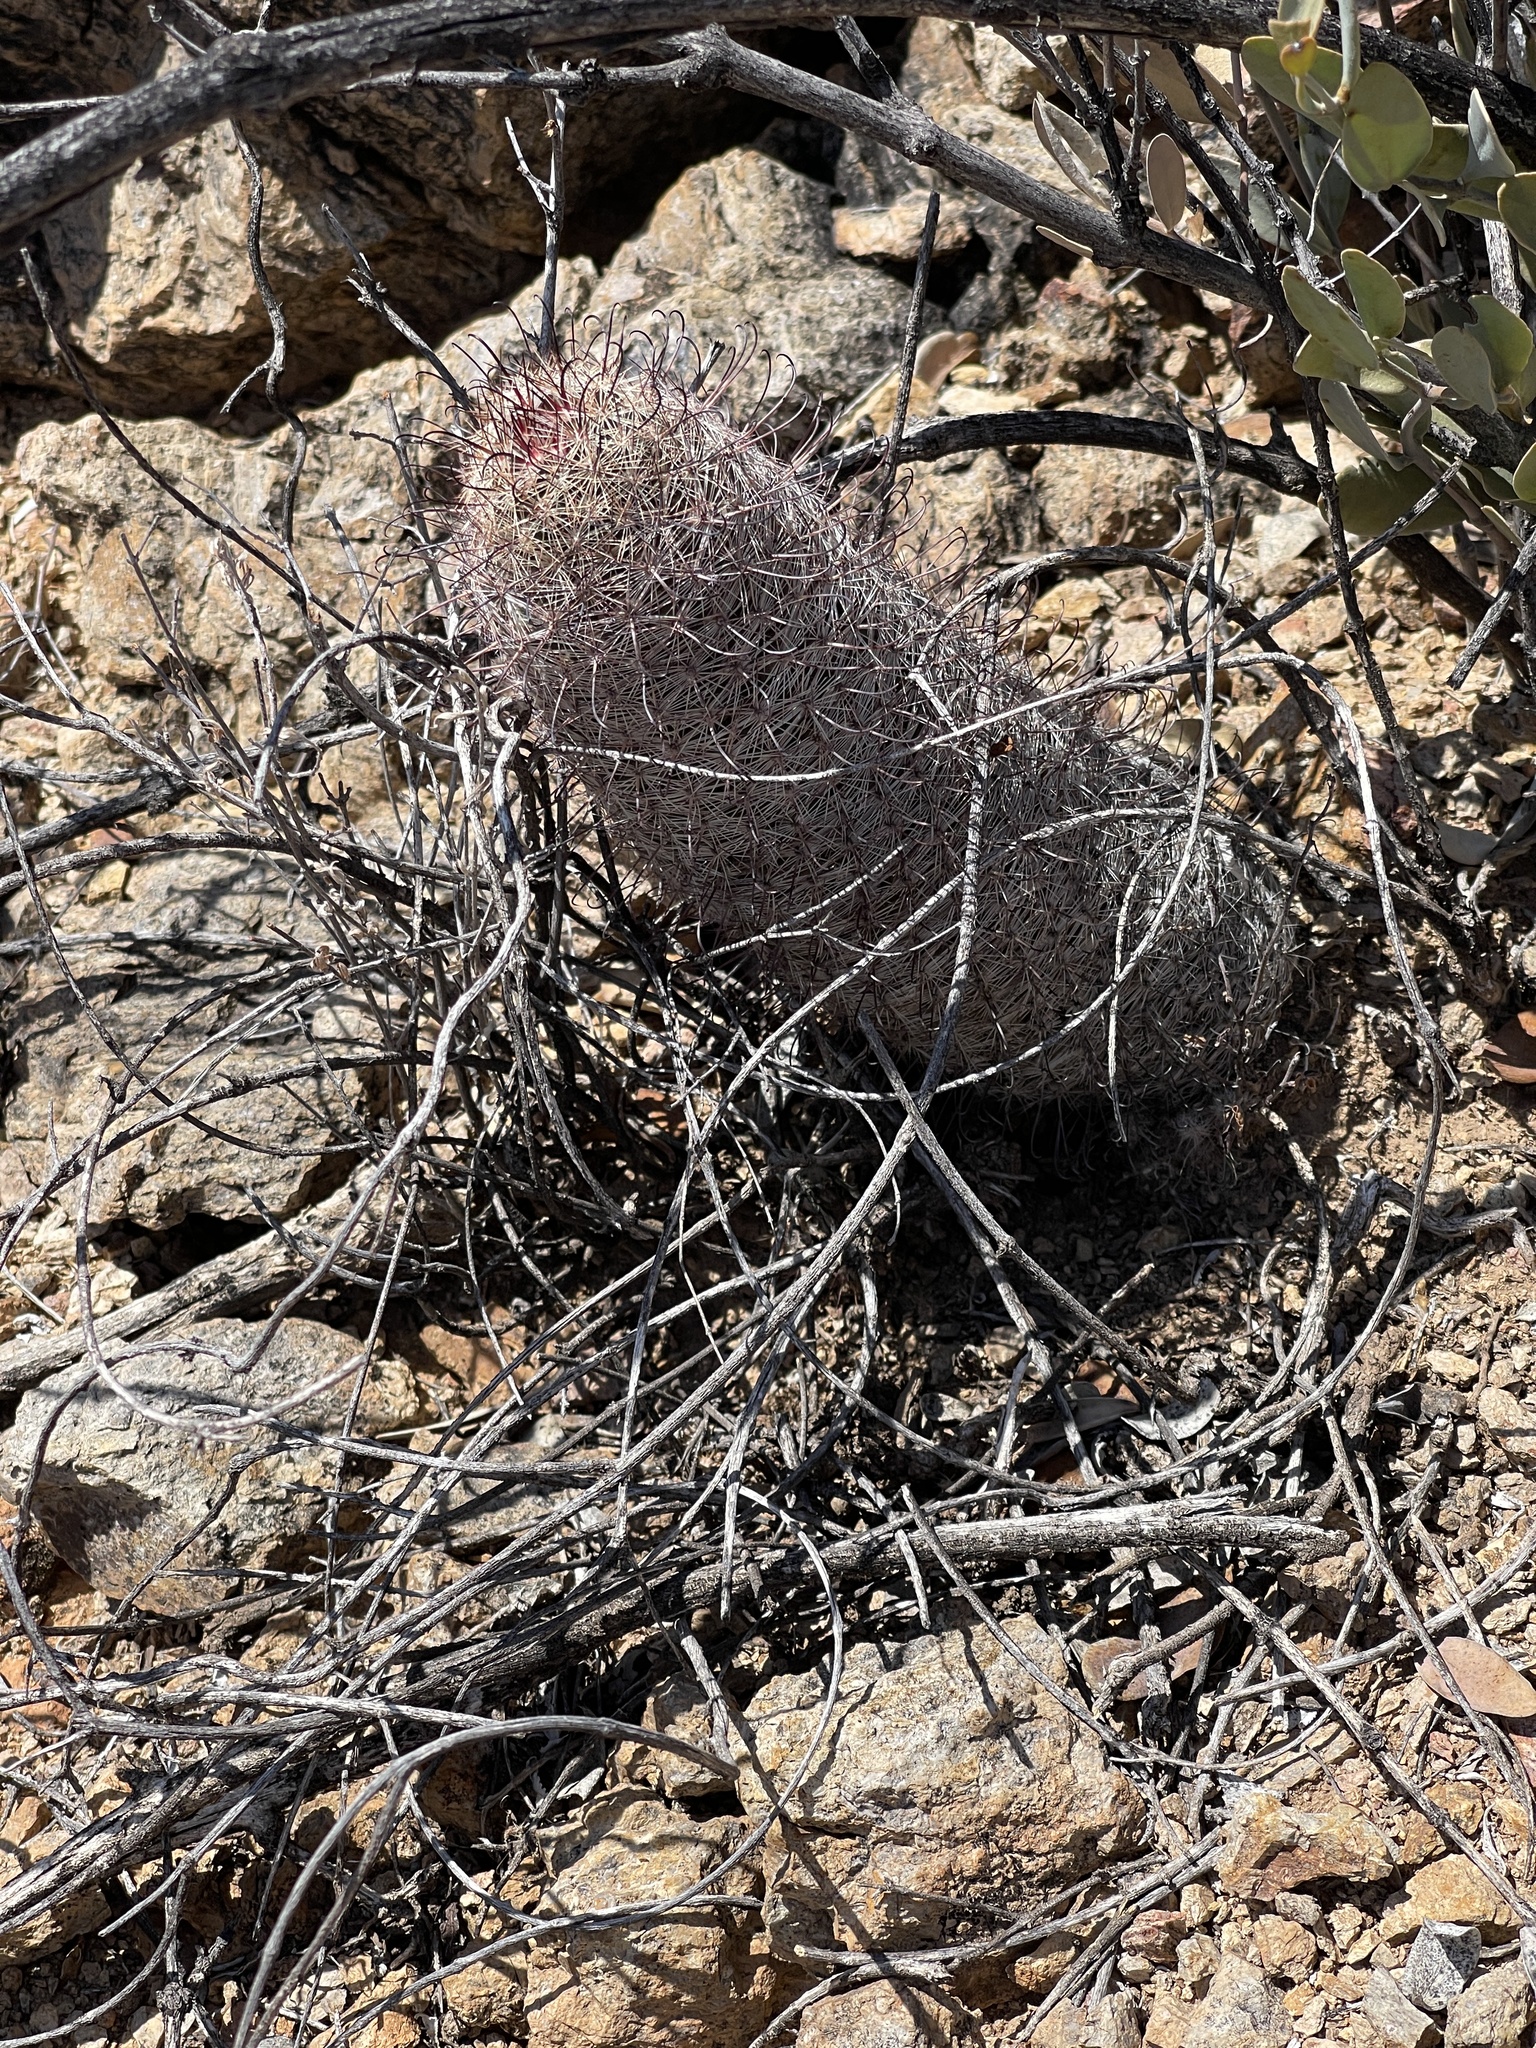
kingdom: Plantae
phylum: Tracheophyta
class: Magnoliopsida
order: Caryophyllales
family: Cactaceae
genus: Cochemiea
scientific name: Cochemiea grahamii
